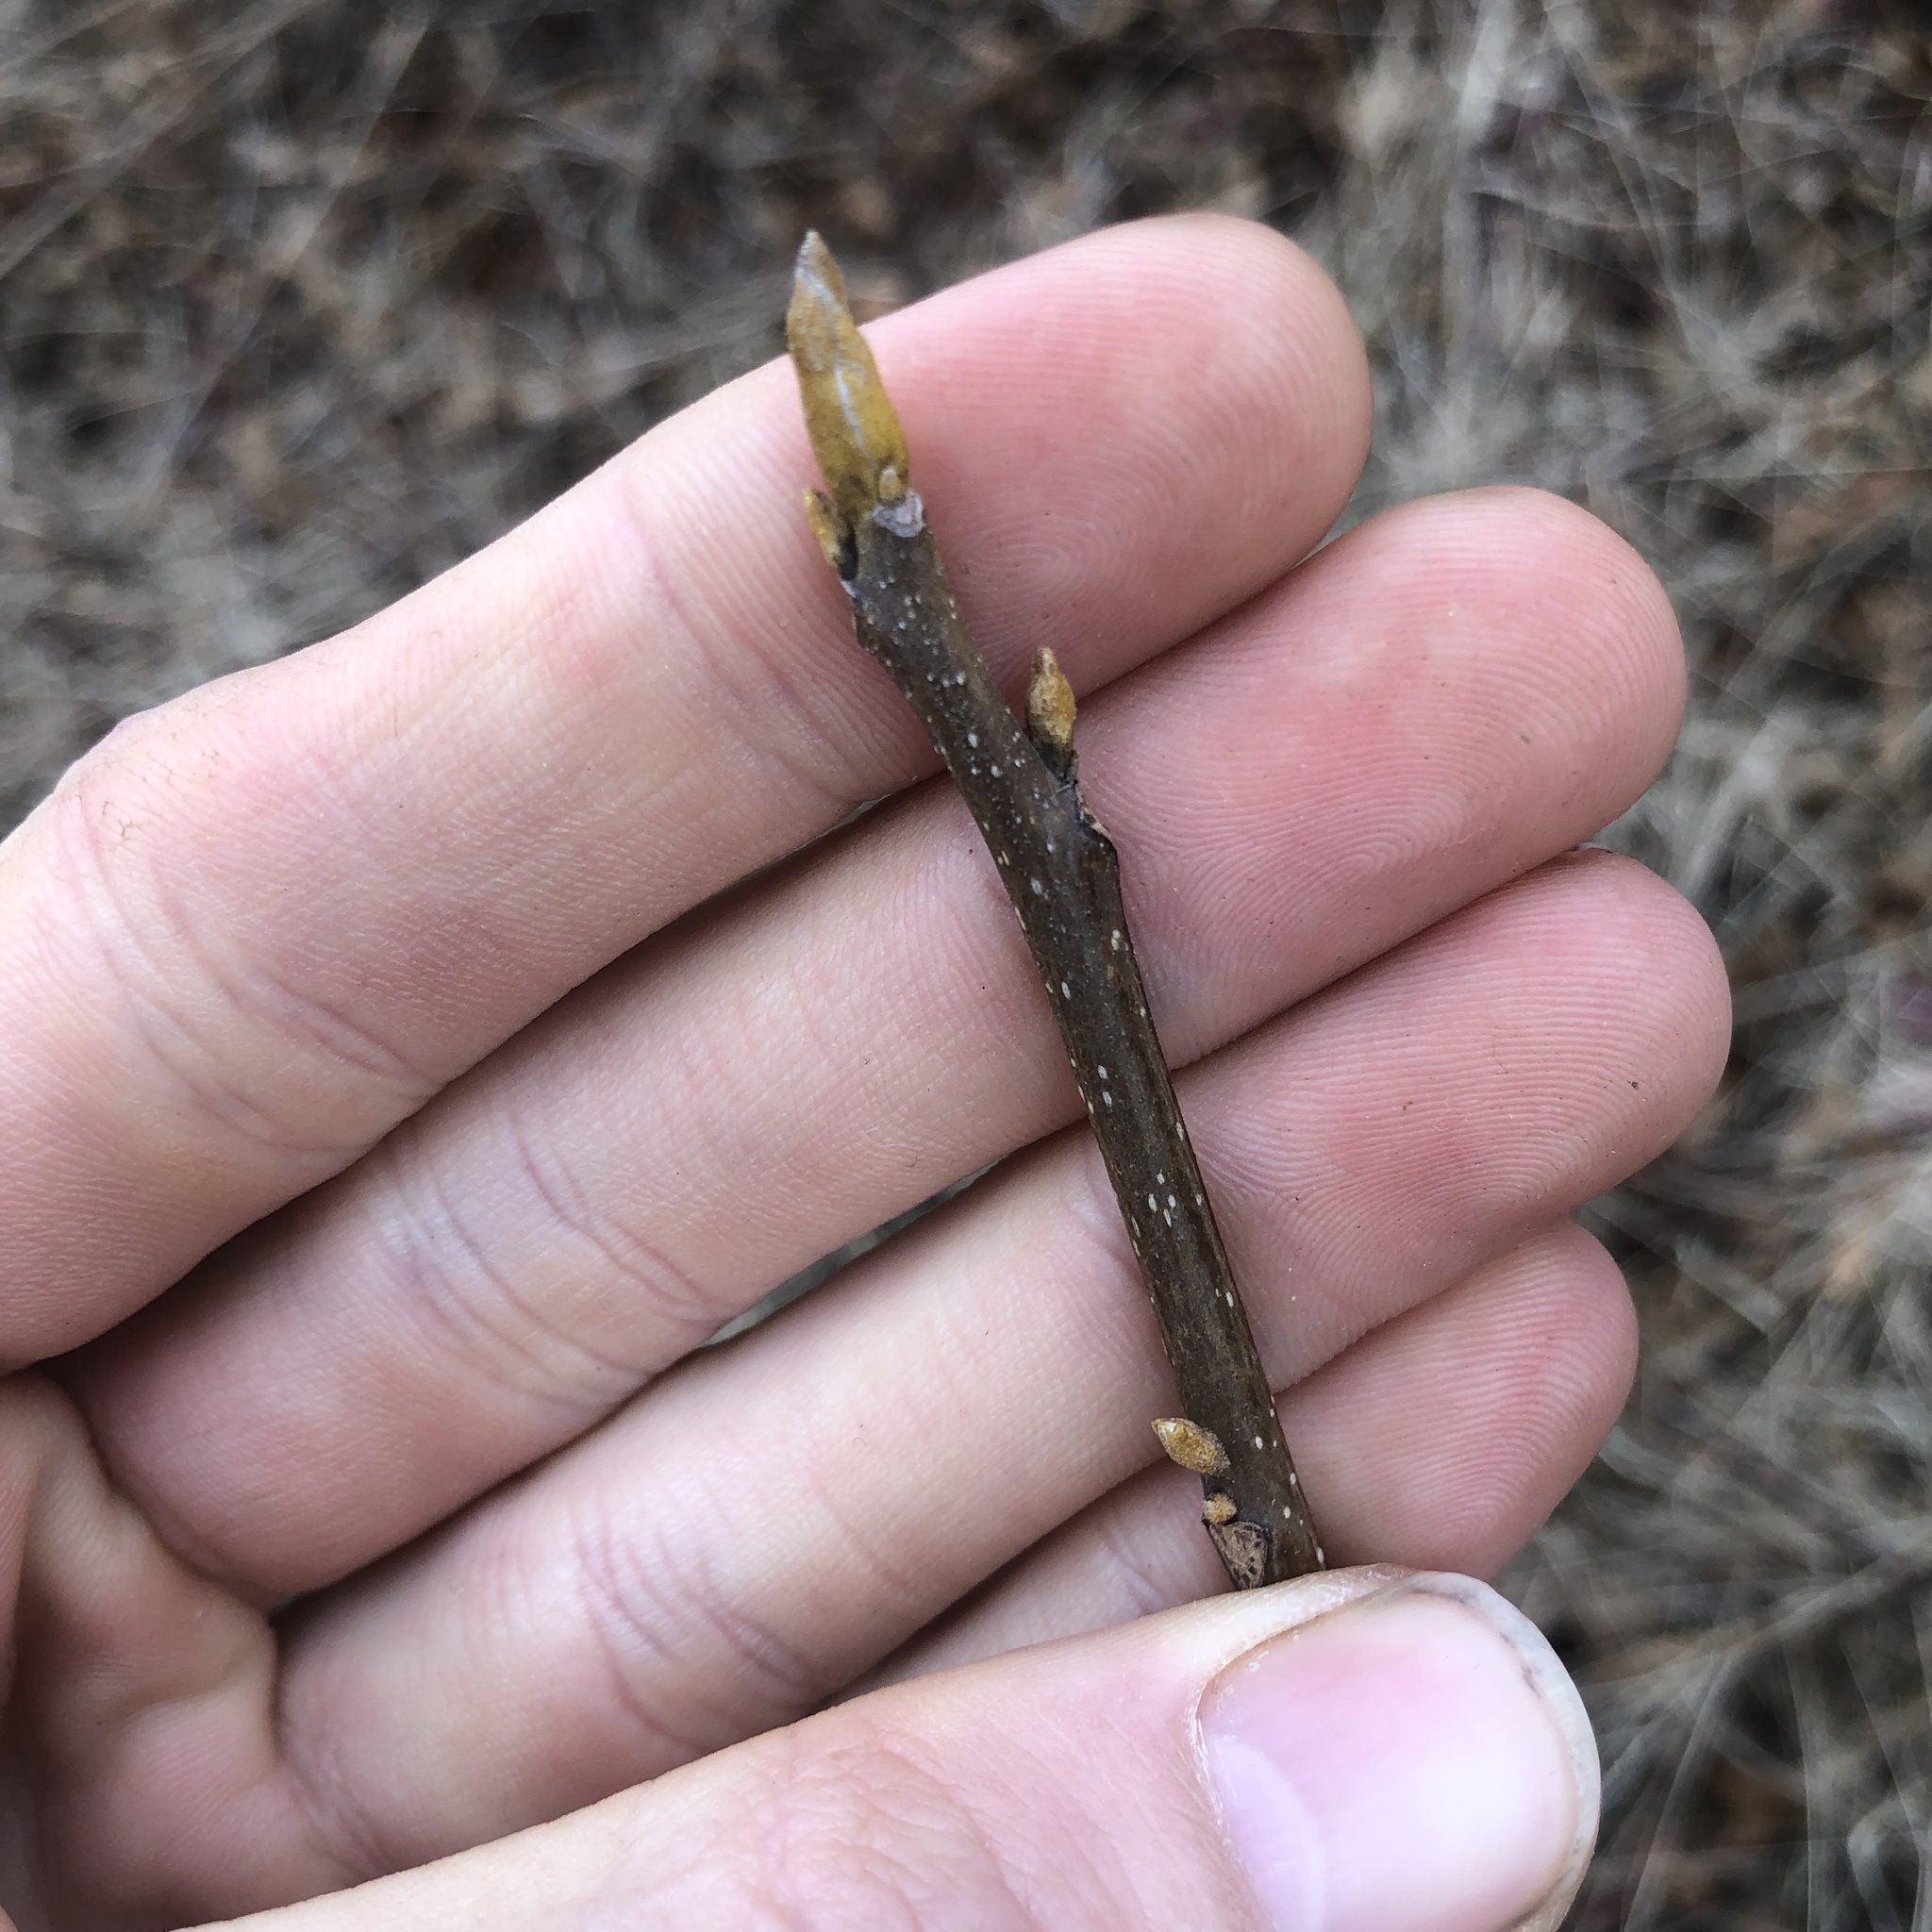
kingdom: Plantae
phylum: Tracheophyta
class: Magnoliopsida
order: Fagales
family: Juglandaceae
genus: Carya
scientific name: Carya cordiformis
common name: Bitternut hickory
